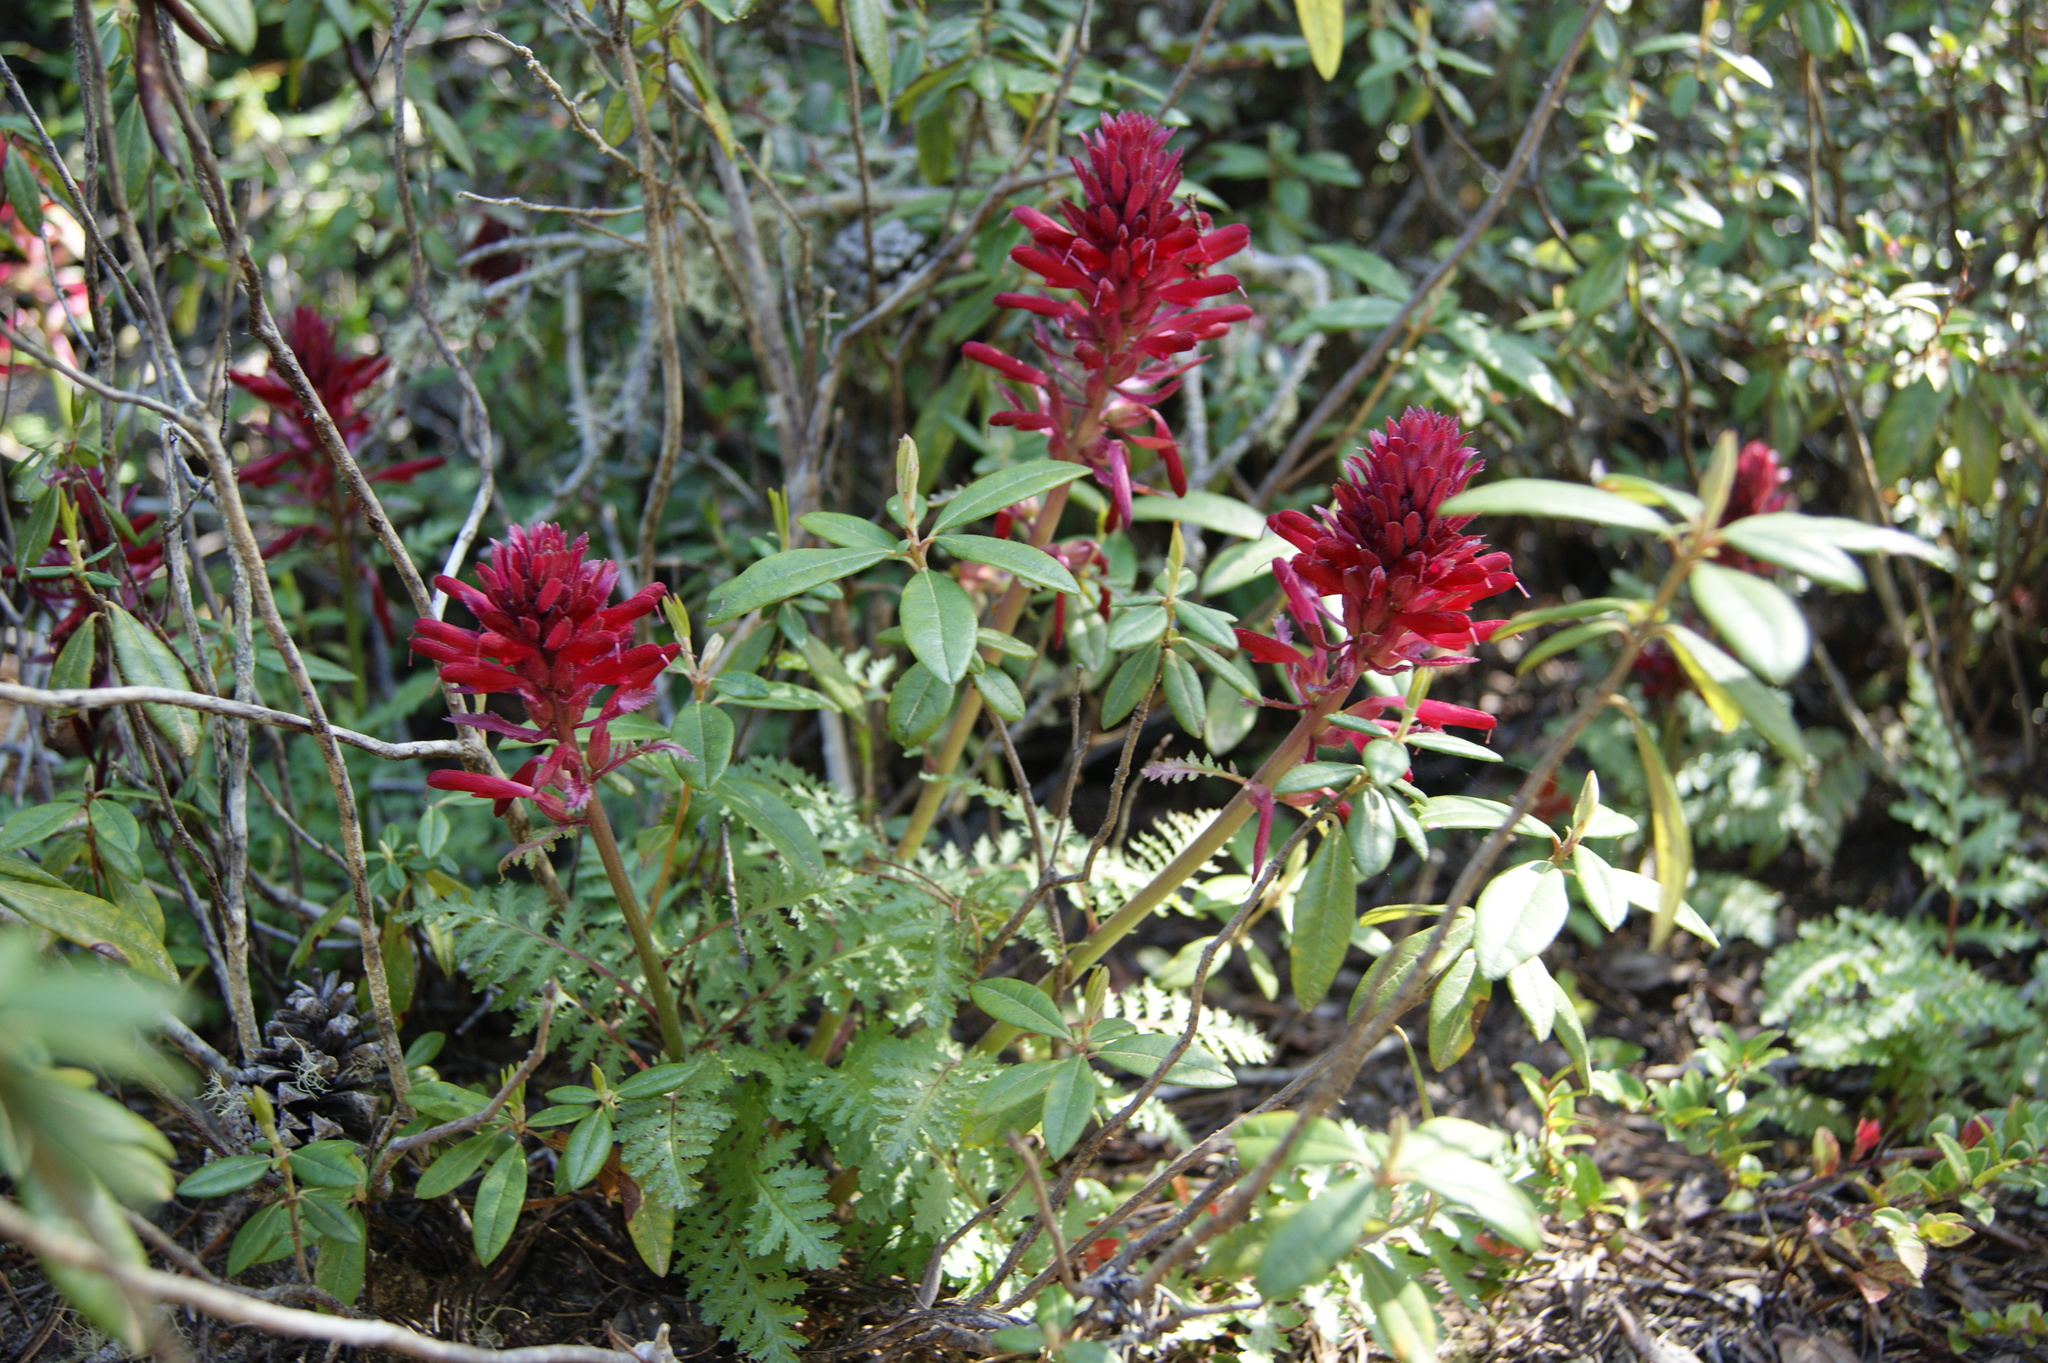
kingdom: Plantae
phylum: Tracheophyta
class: Magnoliopsida
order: Lamiales
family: Orobanchaceae
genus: Pedicularis
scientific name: Pedicularis densiflora
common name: Indian warrior
